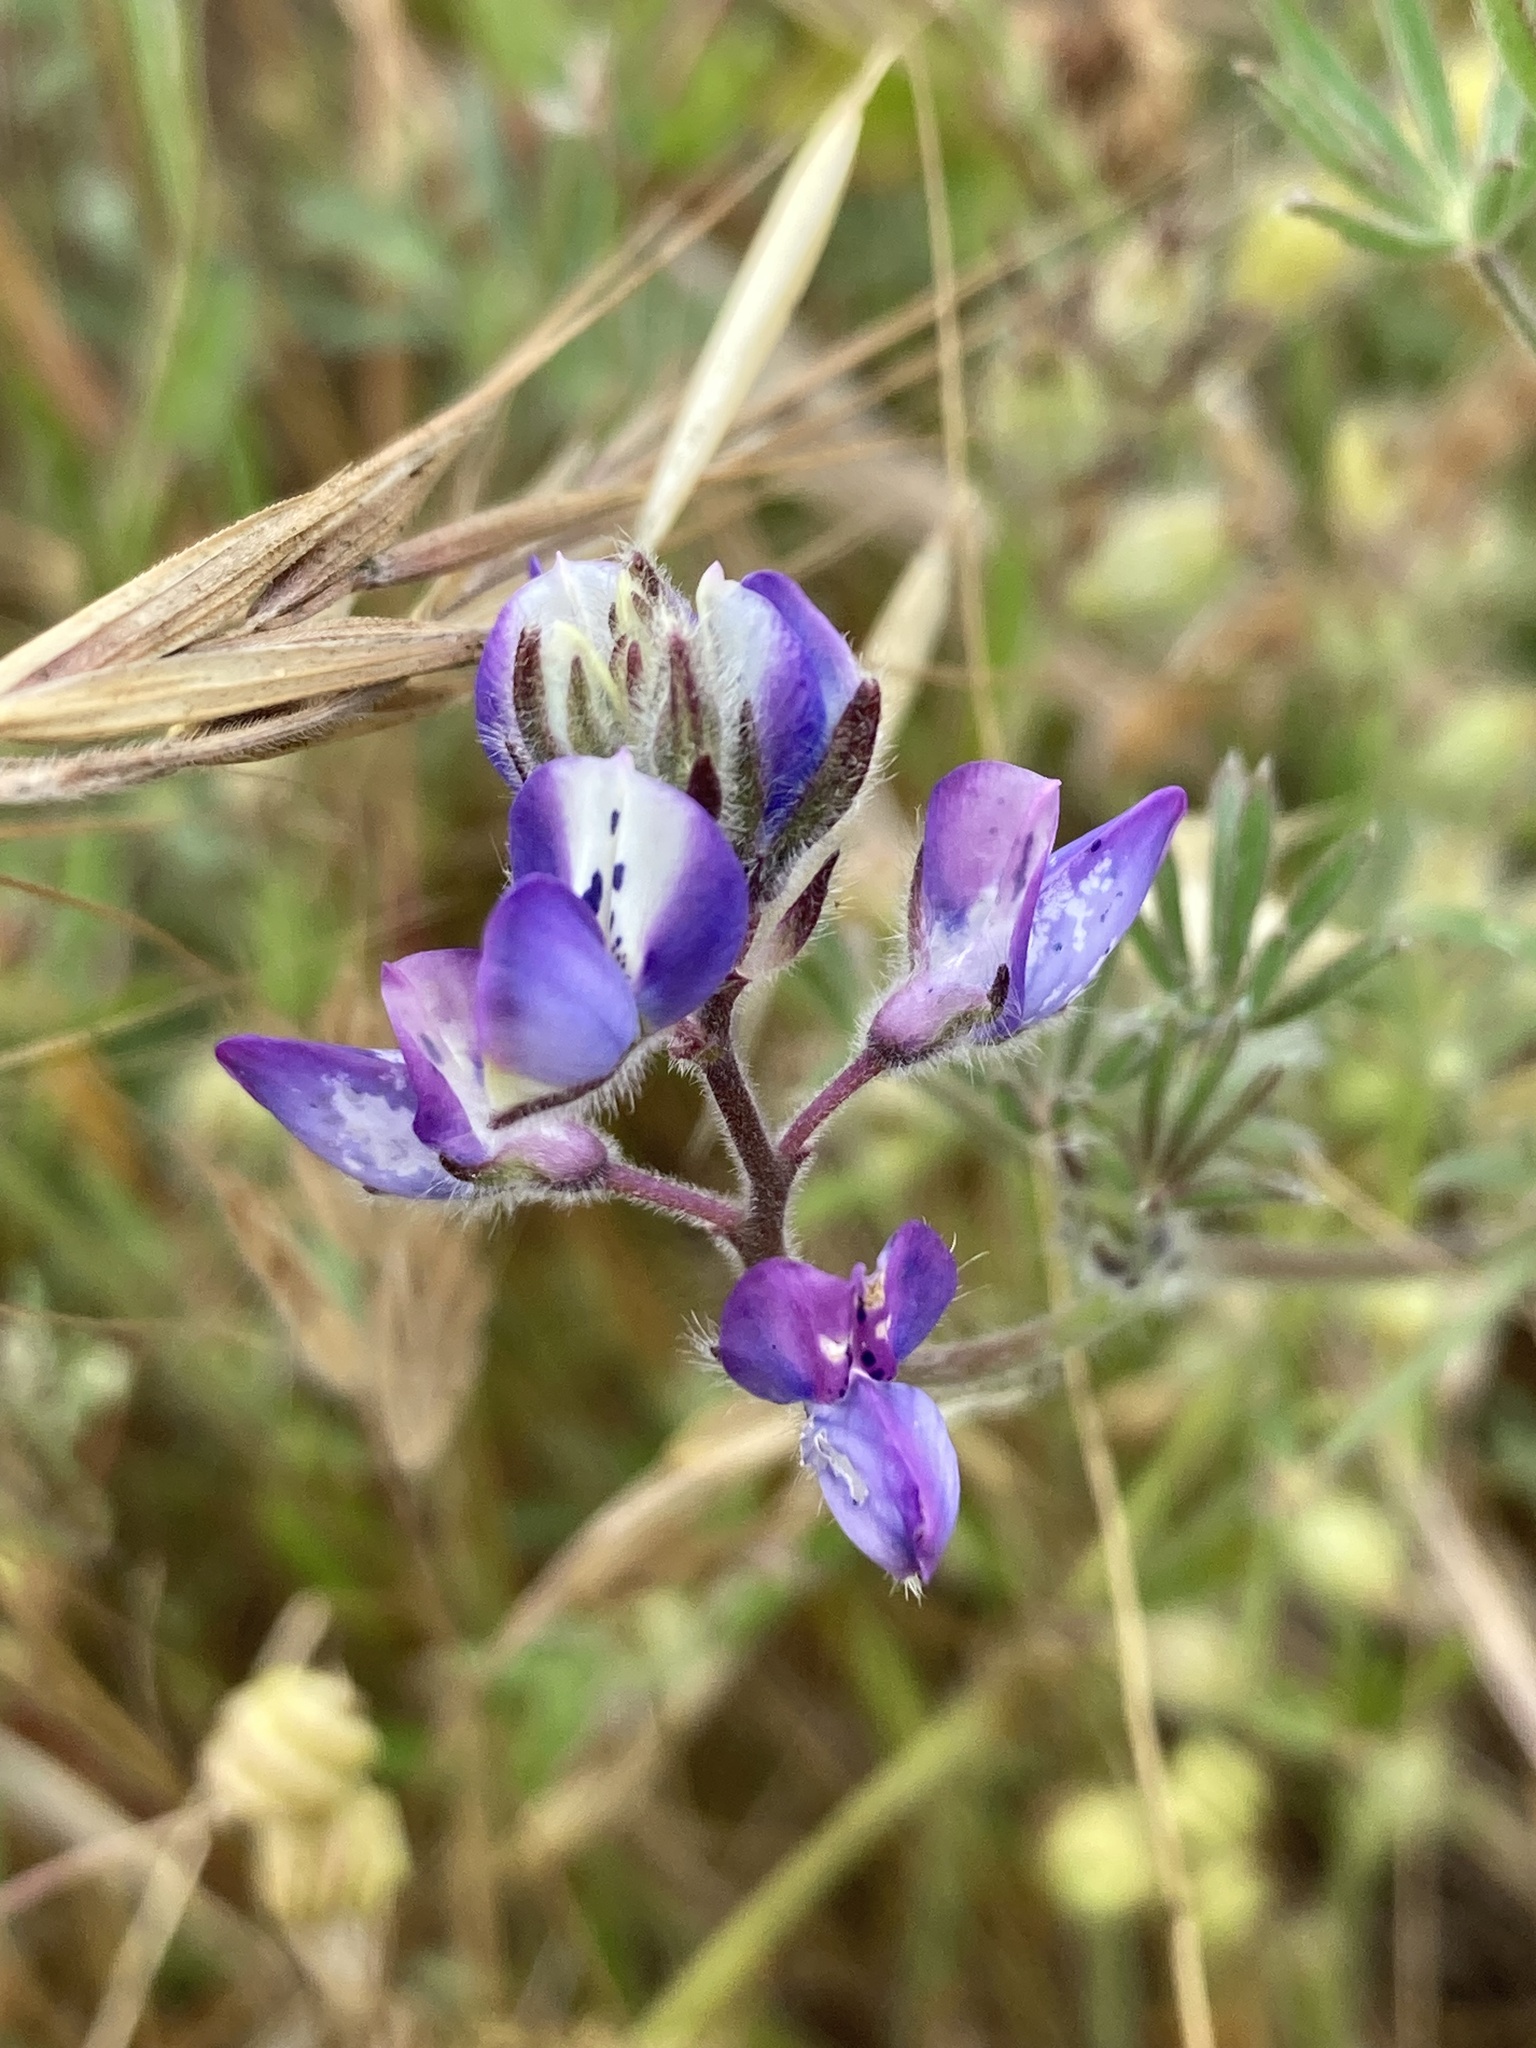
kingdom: Plantae
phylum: Tracheophyta
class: Magnoliopsida
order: Fabales
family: Fabaceae
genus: Lupinus
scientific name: Lupinus bicolor
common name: Miniature lupine
